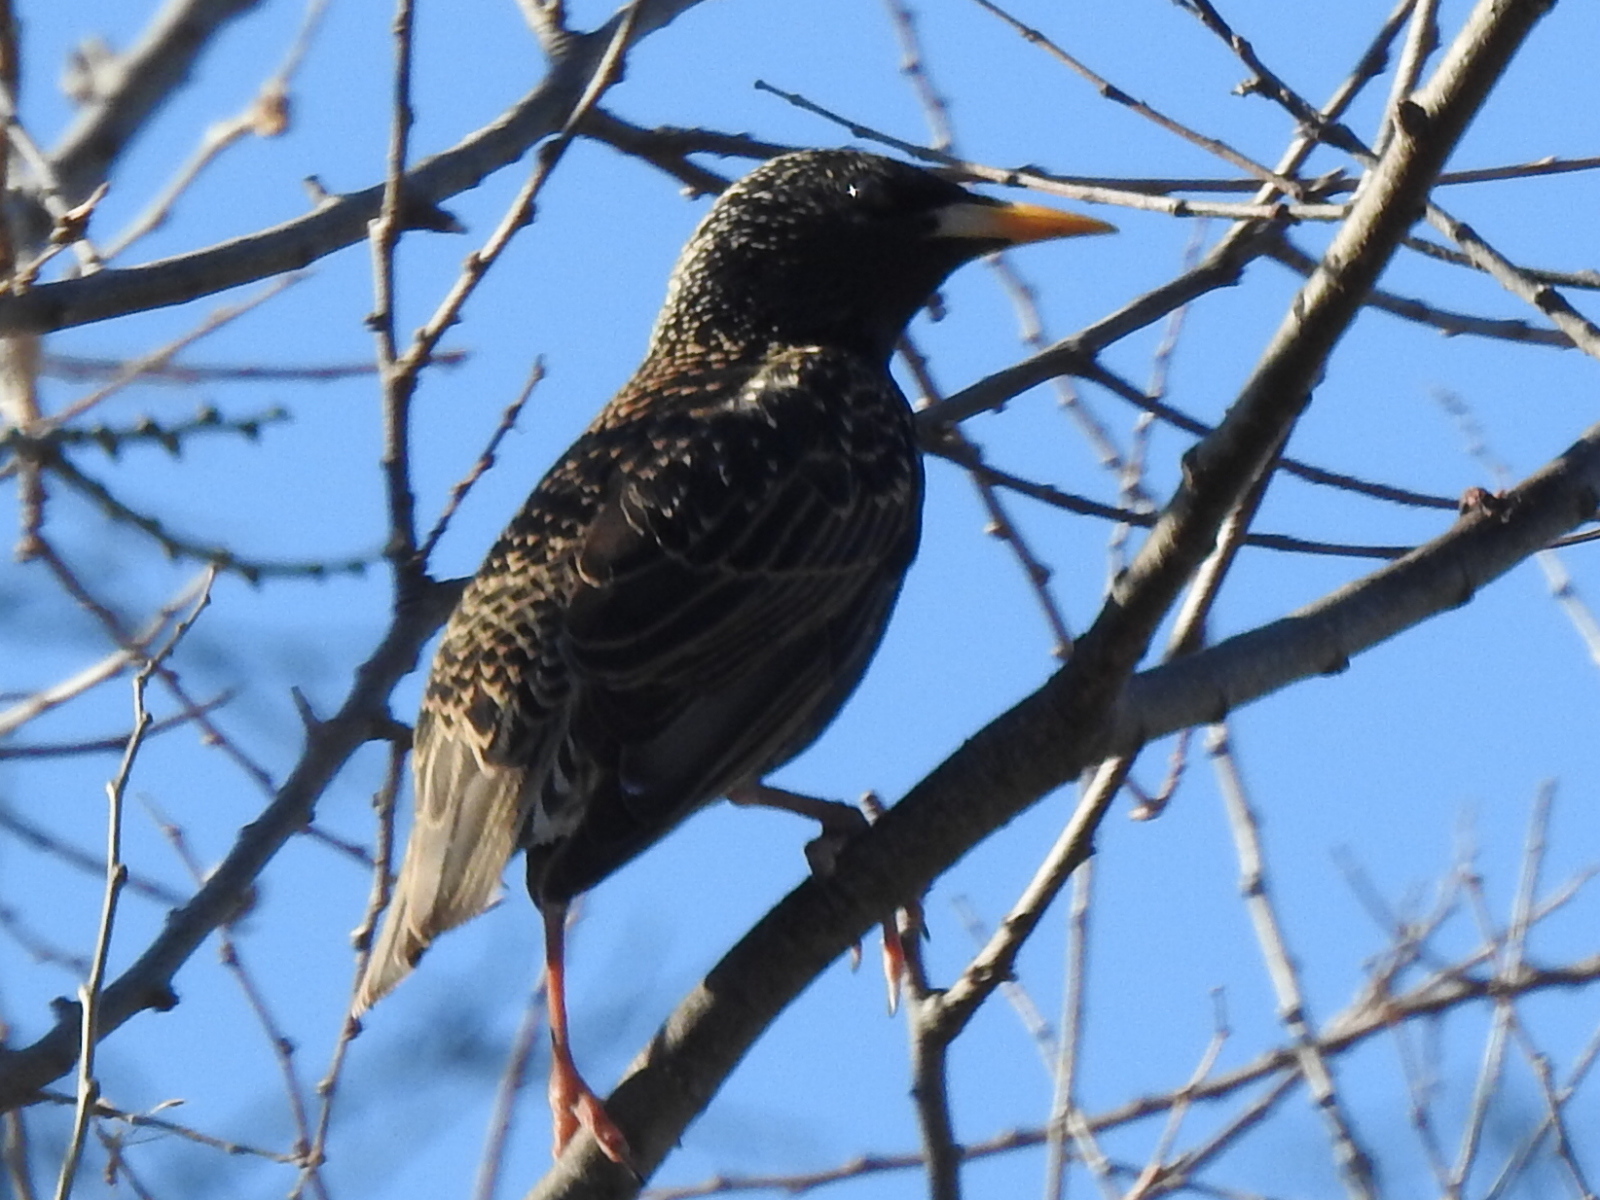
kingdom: Animalia
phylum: Chordata
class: Aves
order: Passeriformes
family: Sturnidae
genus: Sturnus
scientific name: Sturnus vulgaris
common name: Common starling
